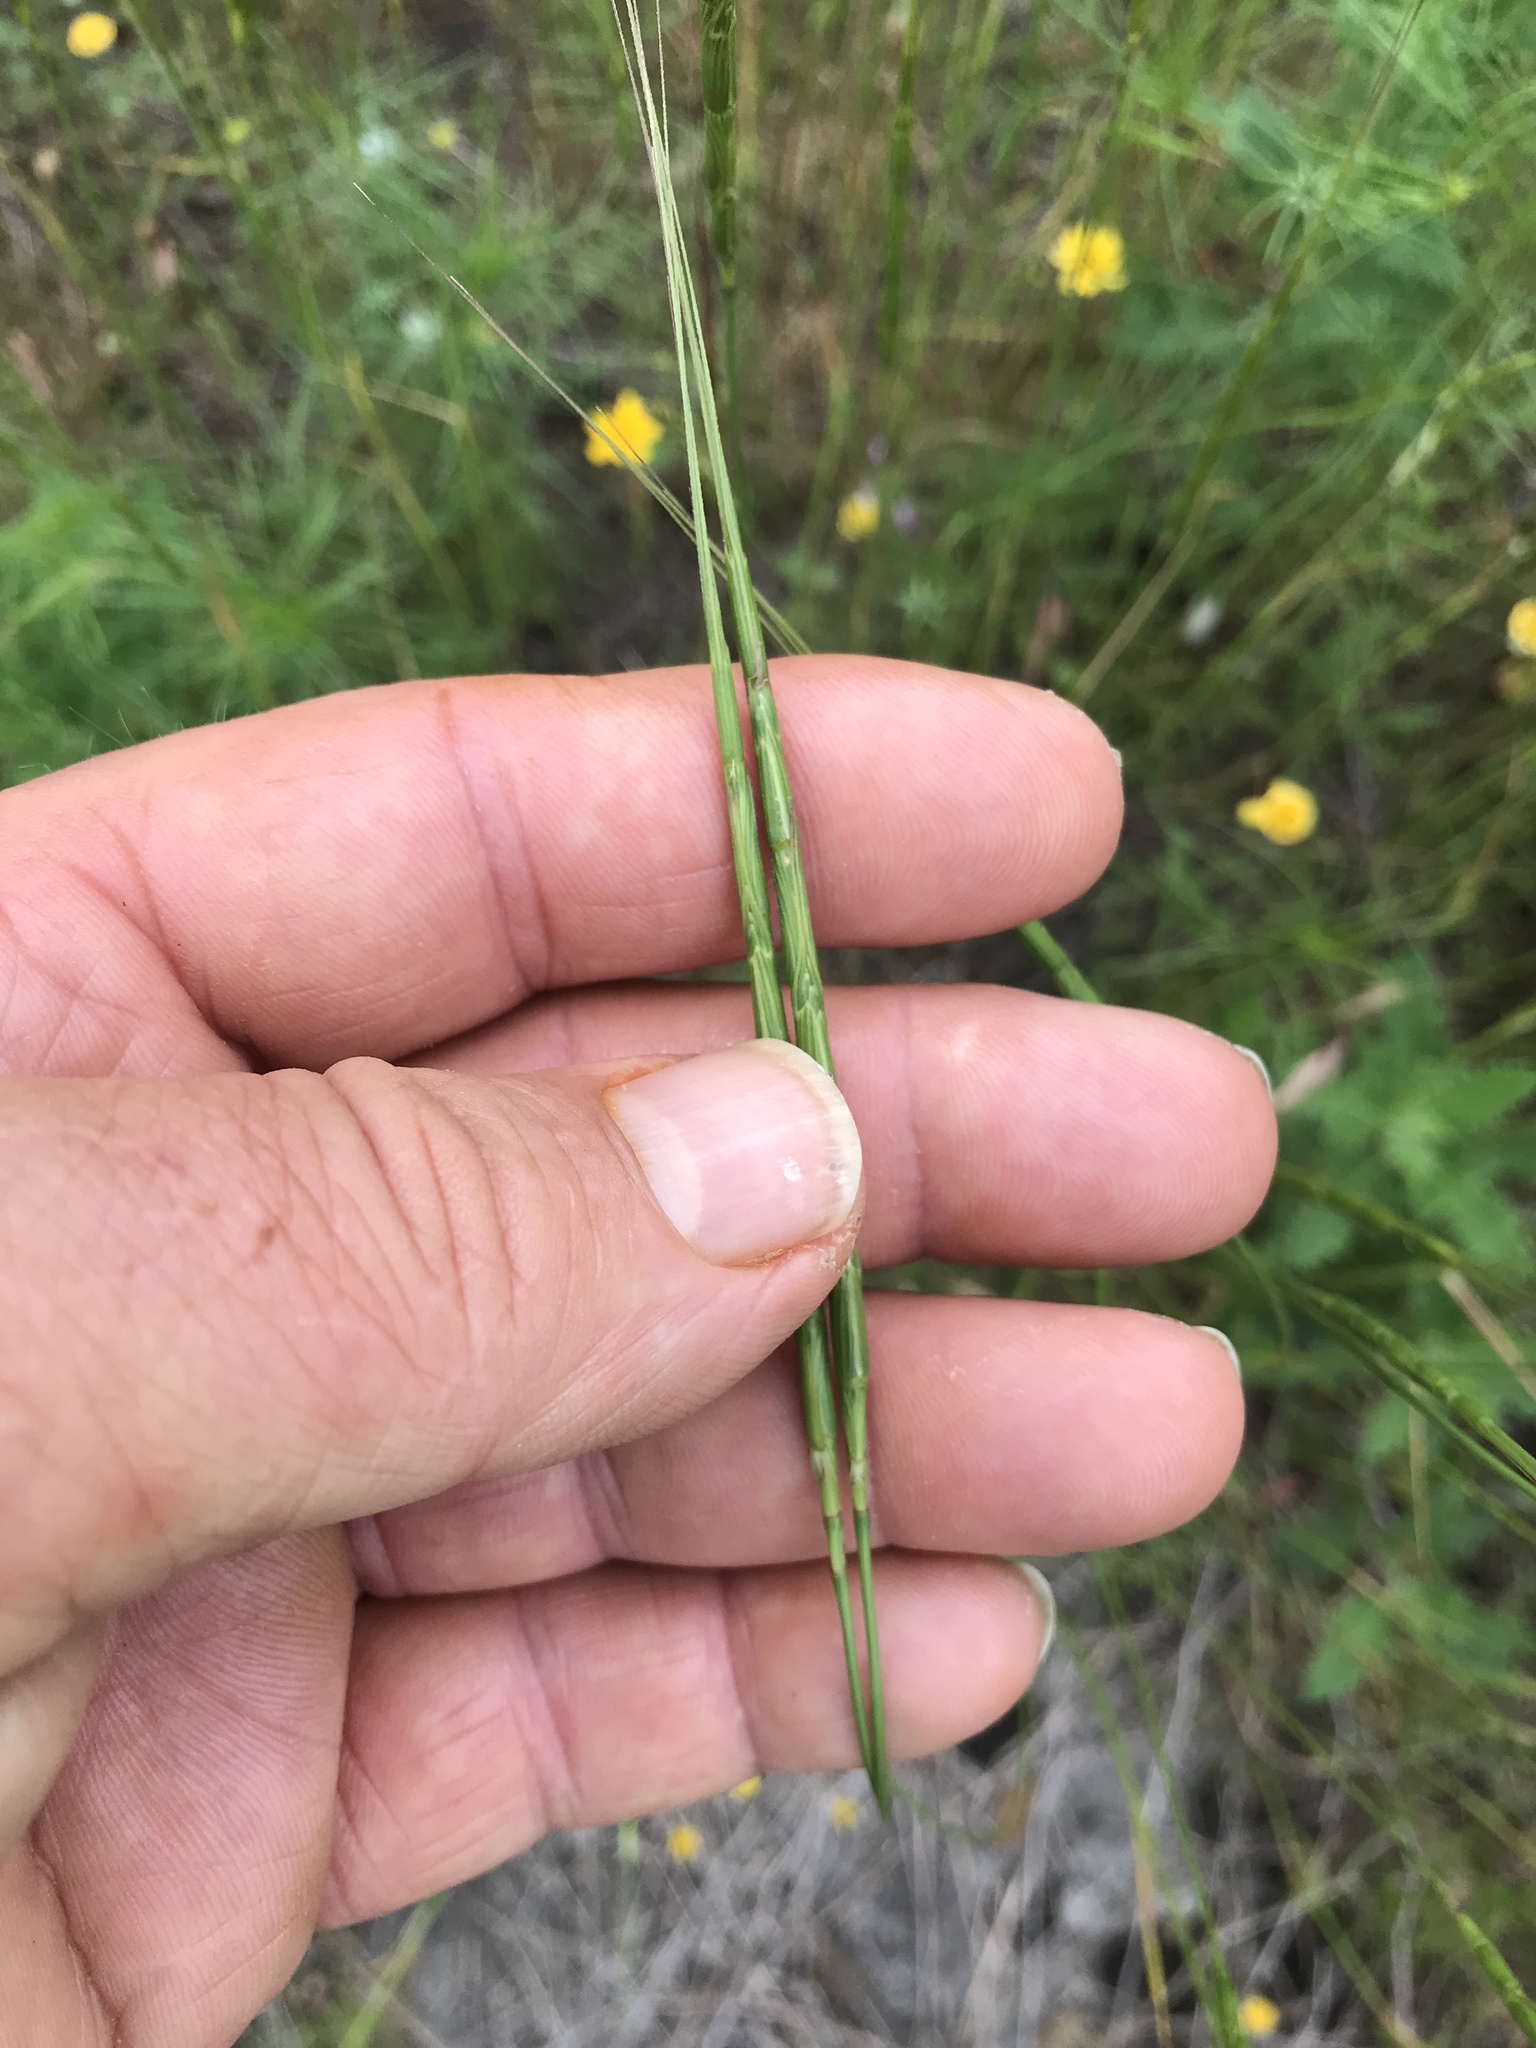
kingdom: Plantae
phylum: Tracheophyta
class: Liliopsida
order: Poales
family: Poaceae
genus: Aegilops
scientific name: Aegilops cylindrica
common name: Jointed goatgrass
